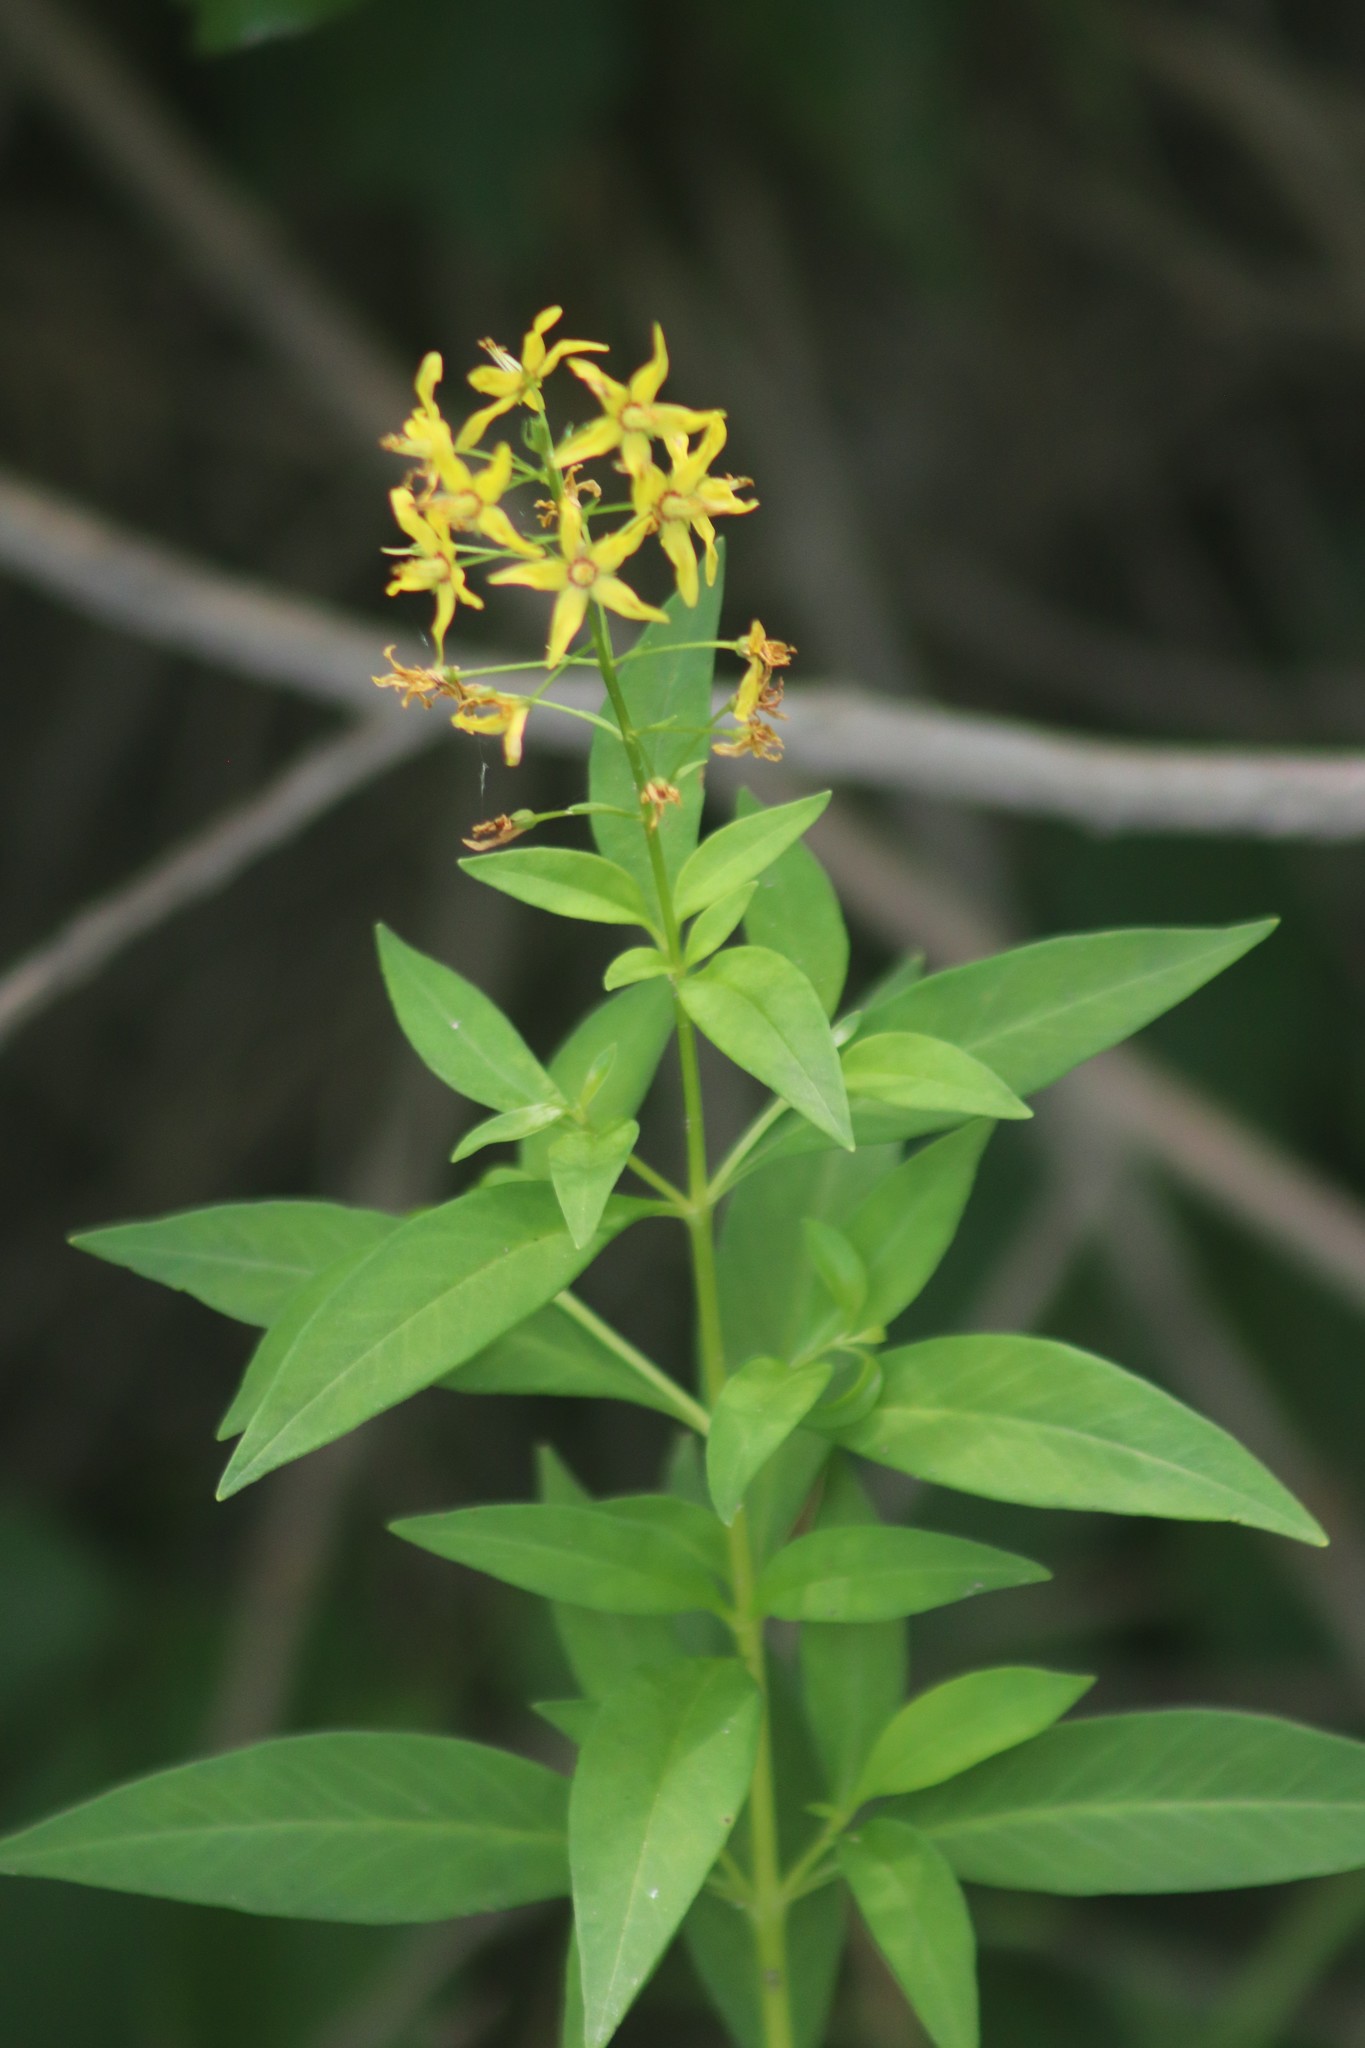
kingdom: Plantae
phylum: Tracheophyta
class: Magnoliopsida
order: Ericales
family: Primulaceae
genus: Lysimachia
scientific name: Lysimachia terrestris
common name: Lake loosestrife
